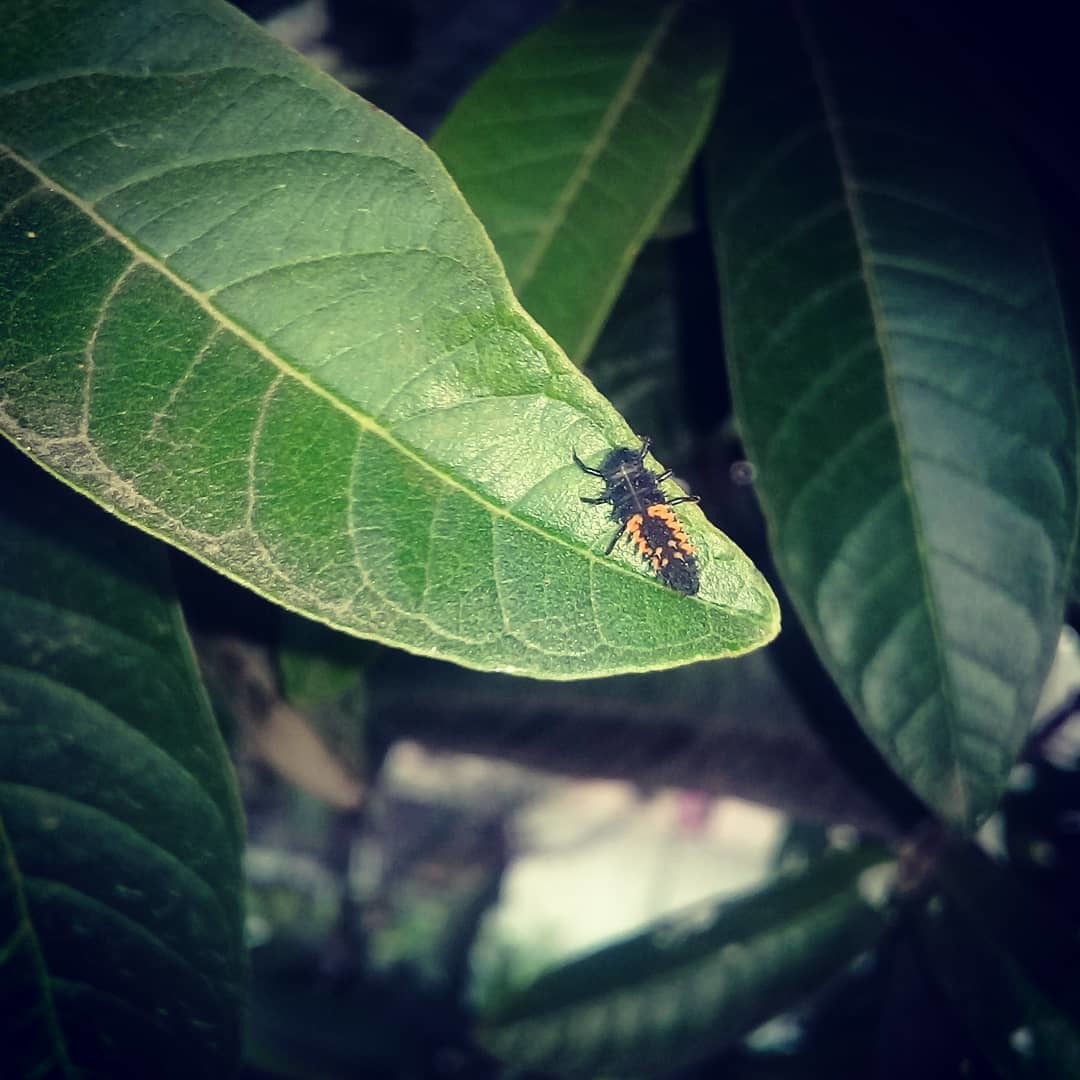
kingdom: Animalia
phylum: Arthropoda
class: Insecta
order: Coleoptera
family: Coccinellidae
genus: Harmonia
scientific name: Harmonia axyridis
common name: Harlequin ladybird
